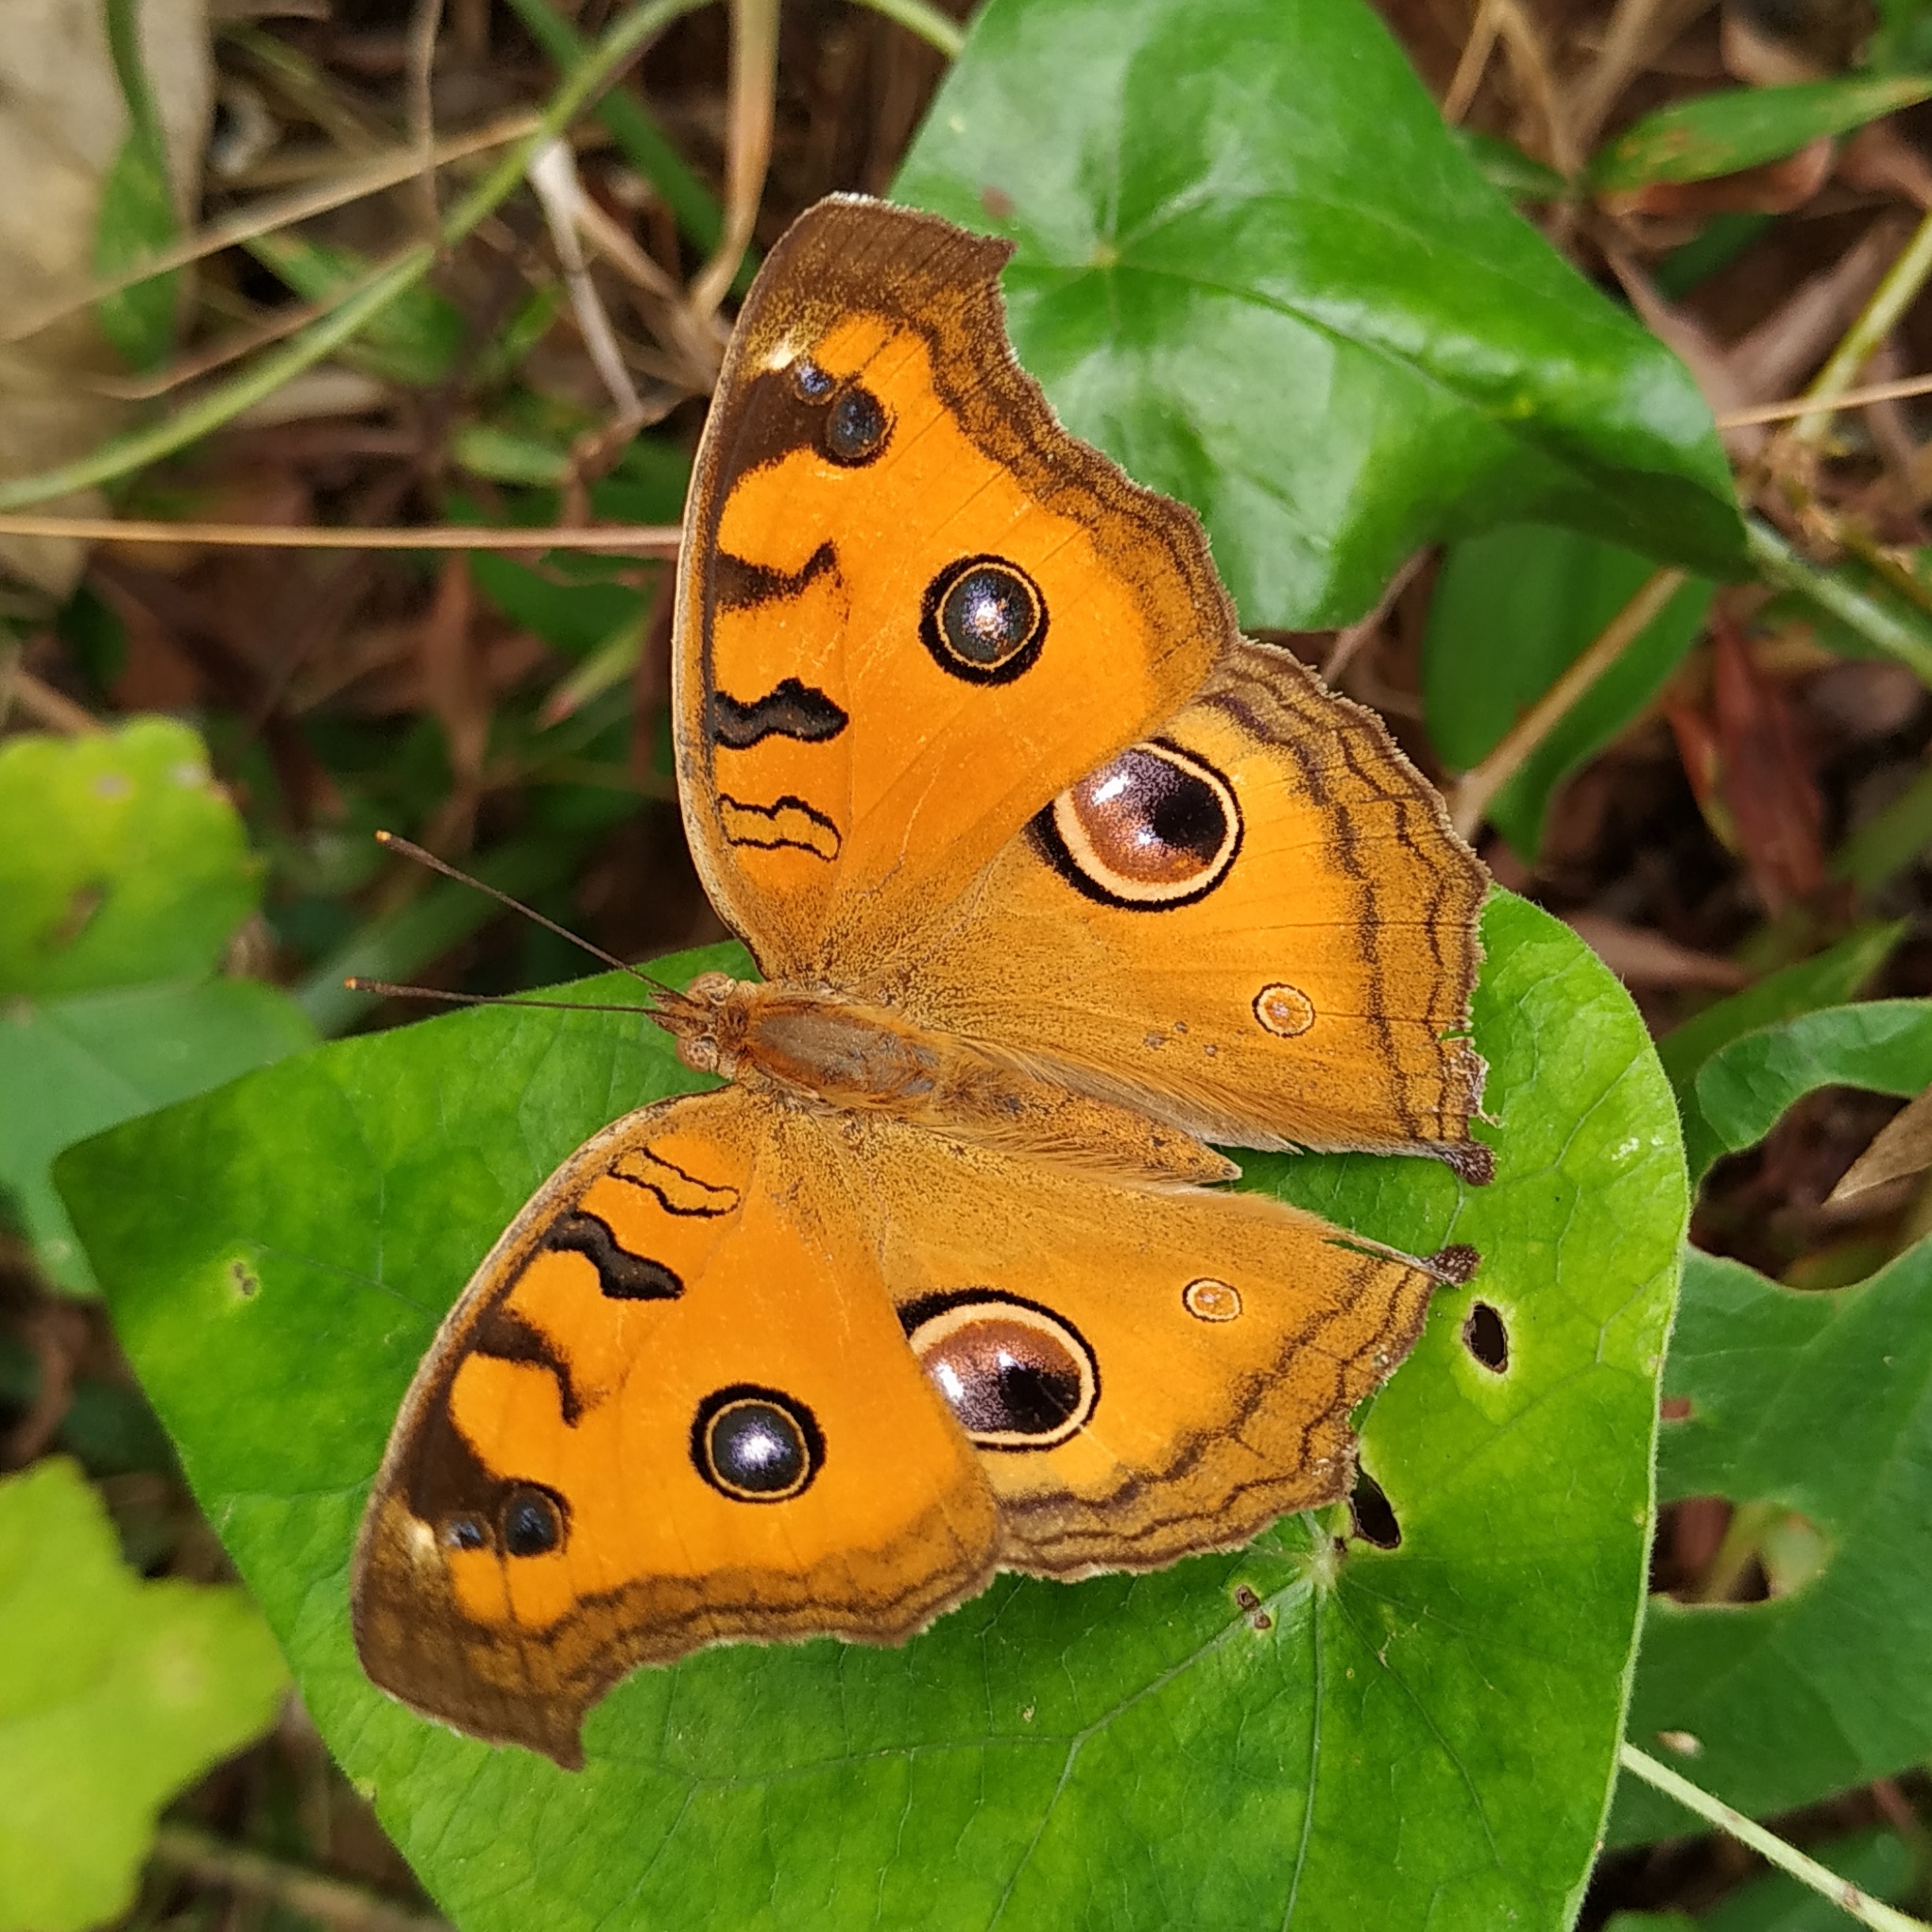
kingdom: Animalia
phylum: Arthropoda
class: Insecta
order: Lepidoptera
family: Nymphalidae
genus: Junonia
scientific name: Junonia almana
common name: Peacock pansy
